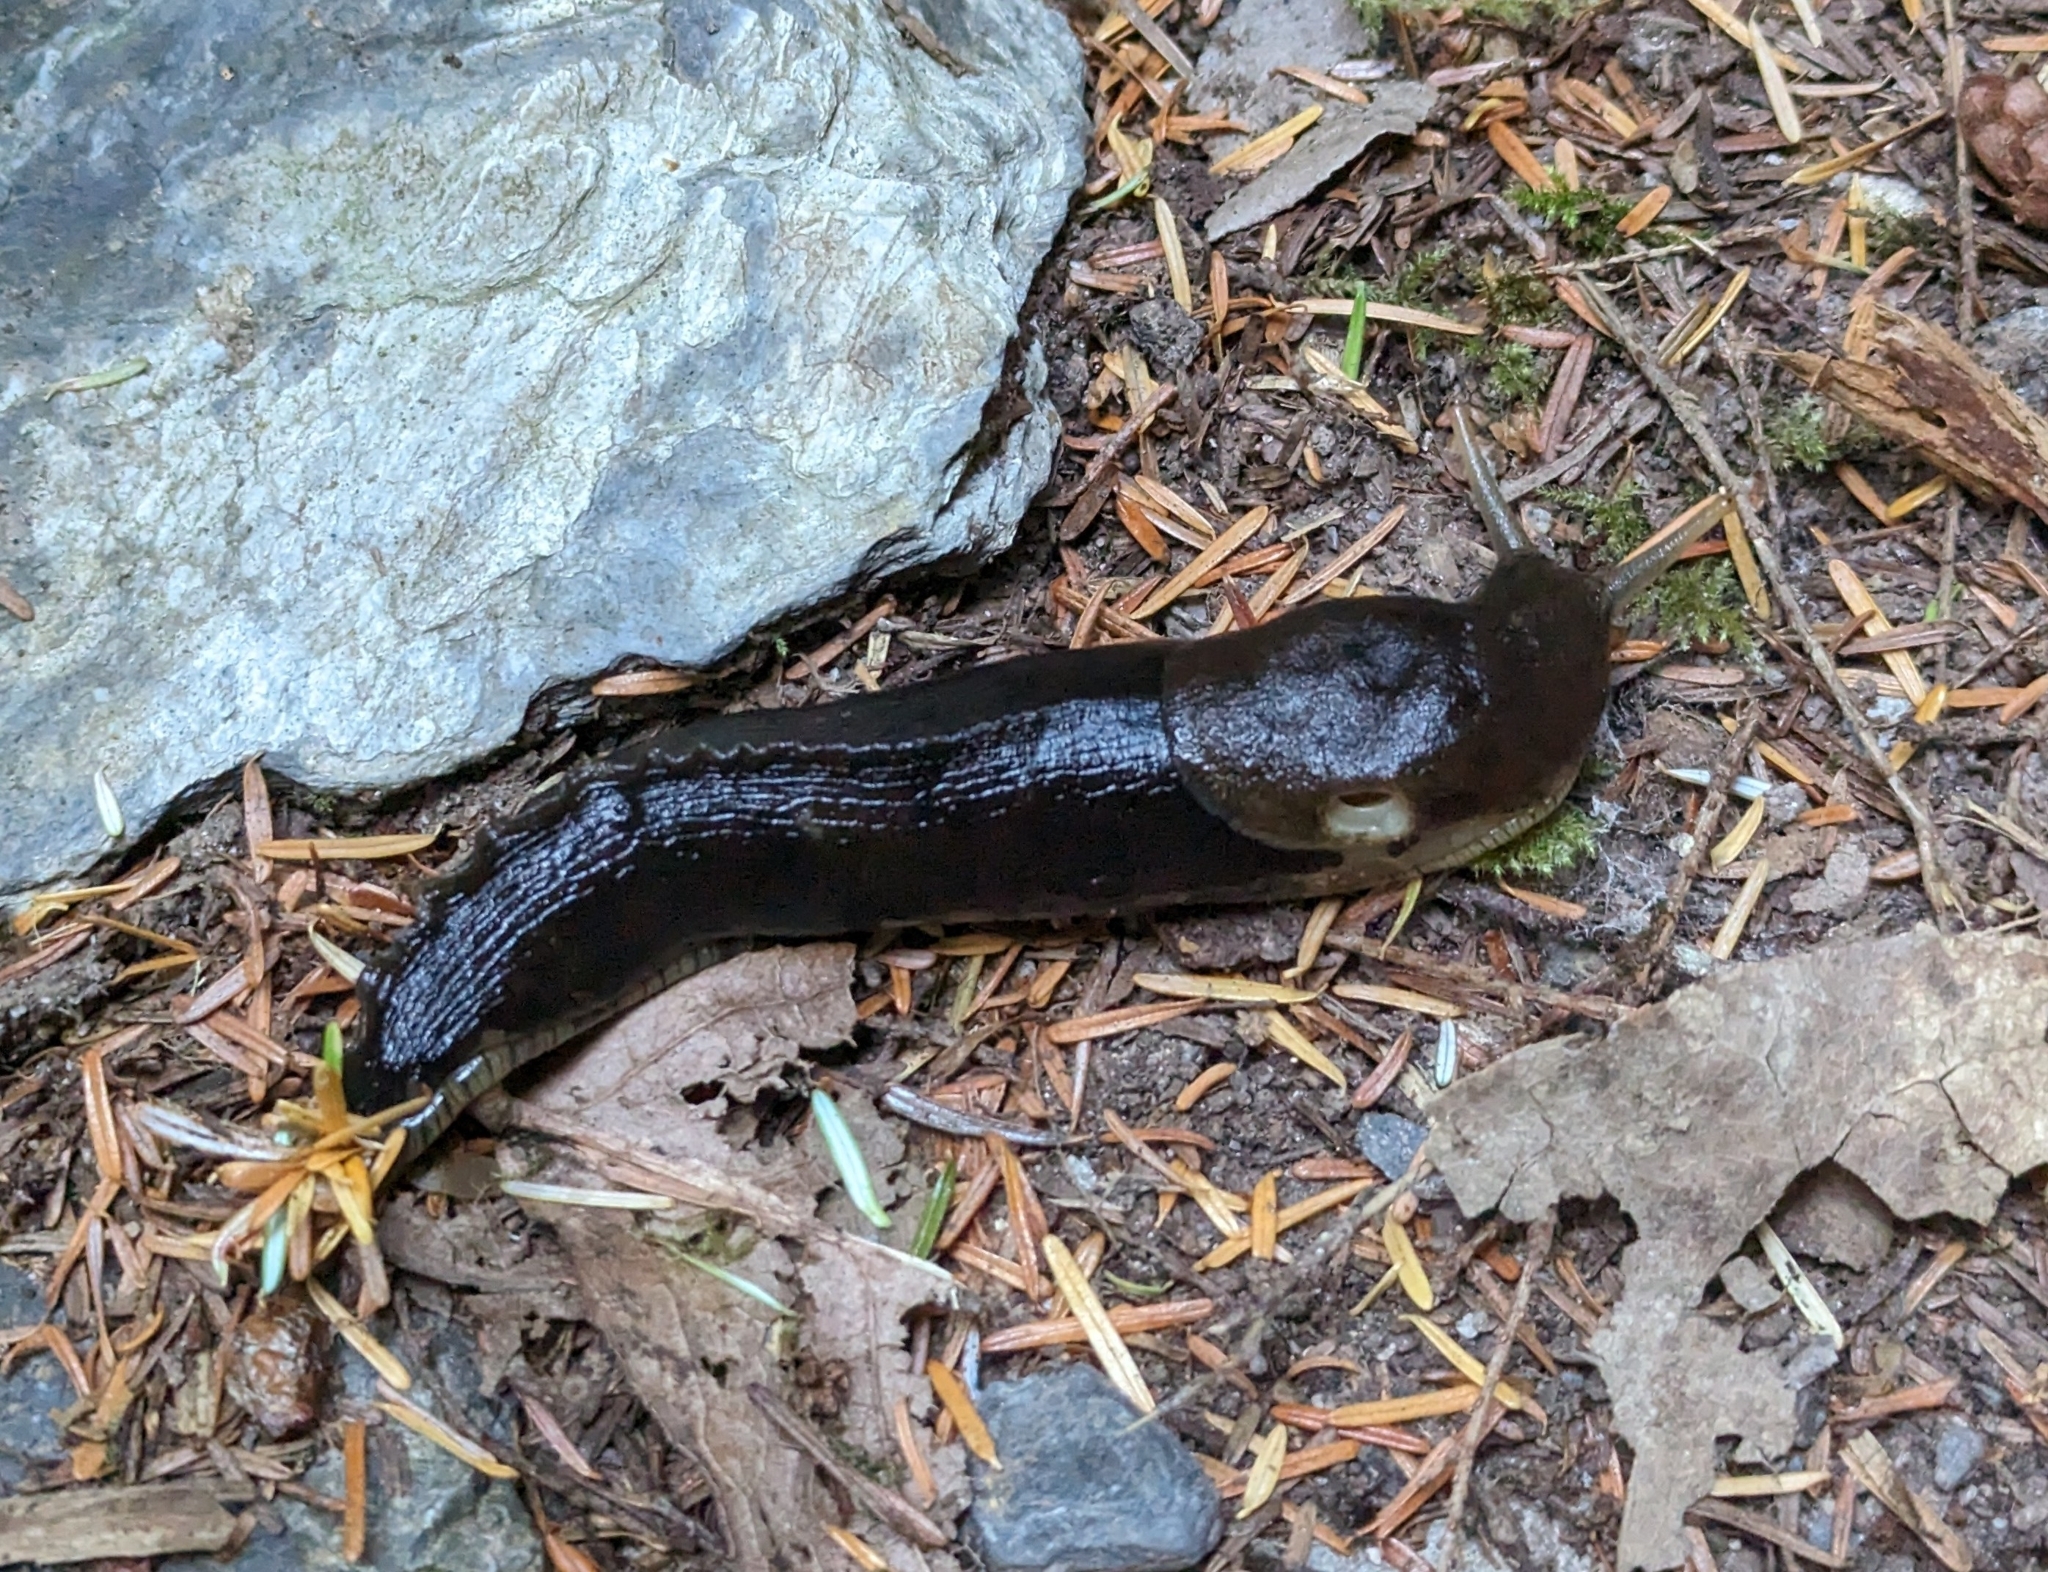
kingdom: Animalia
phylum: Mollusca
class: Gastropoda
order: Stylommatophora
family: Ariolimacidae
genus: Ariolimax
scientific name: Ariolimax columbianus
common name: Pacific banana slug
